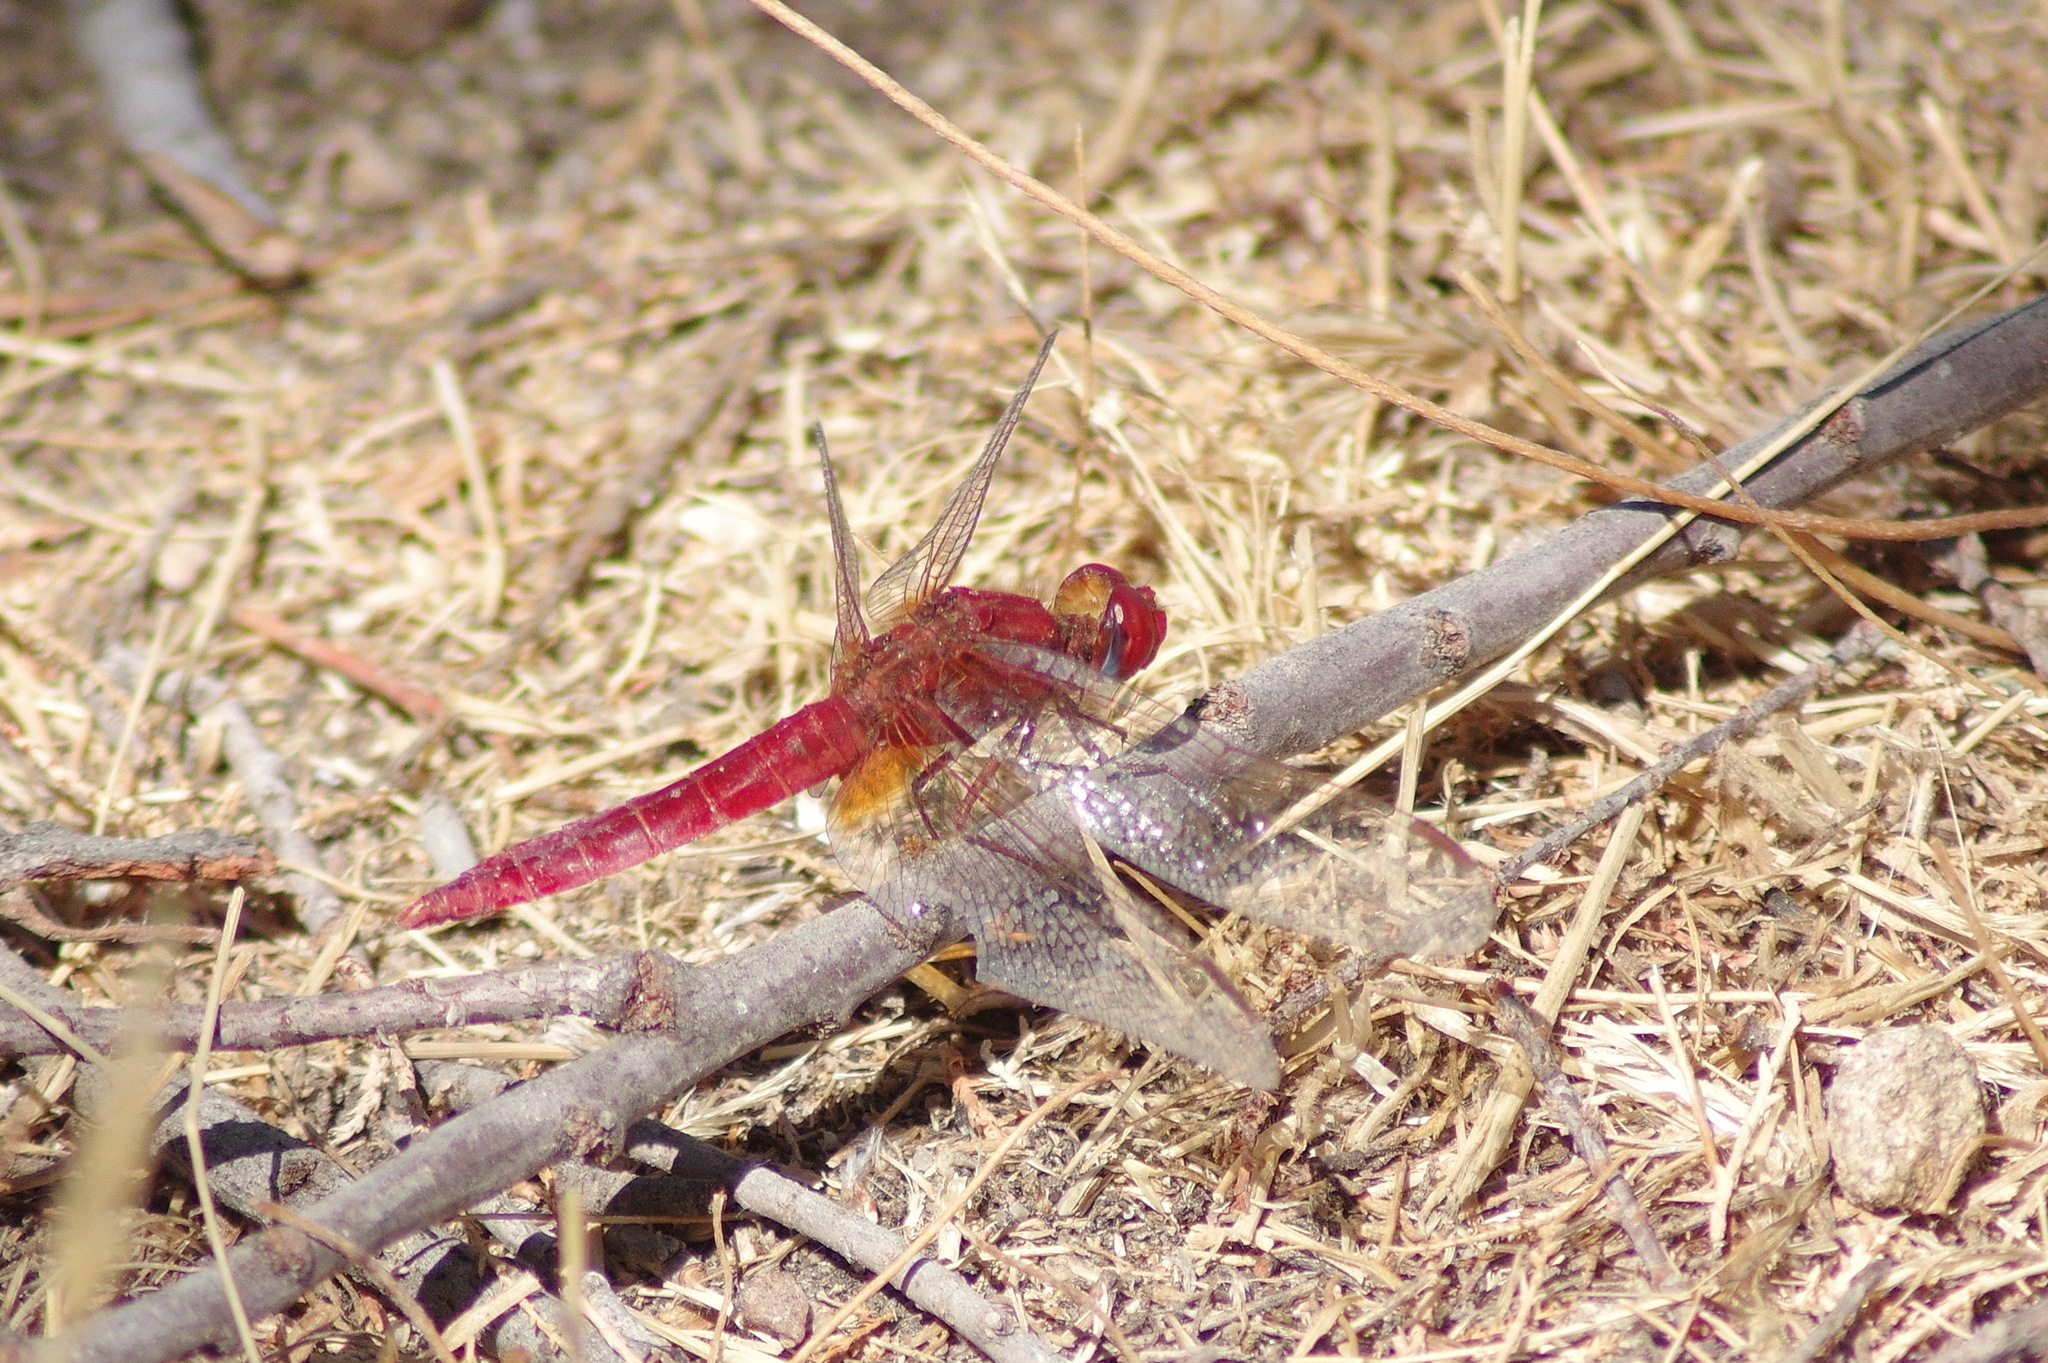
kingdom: Animalia
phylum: Arthropoda
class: Insecta
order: Odonata
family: Libellulidae
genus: Crocothemis
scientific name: Crocothemis erythraea
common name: Scarlet dragonfly
